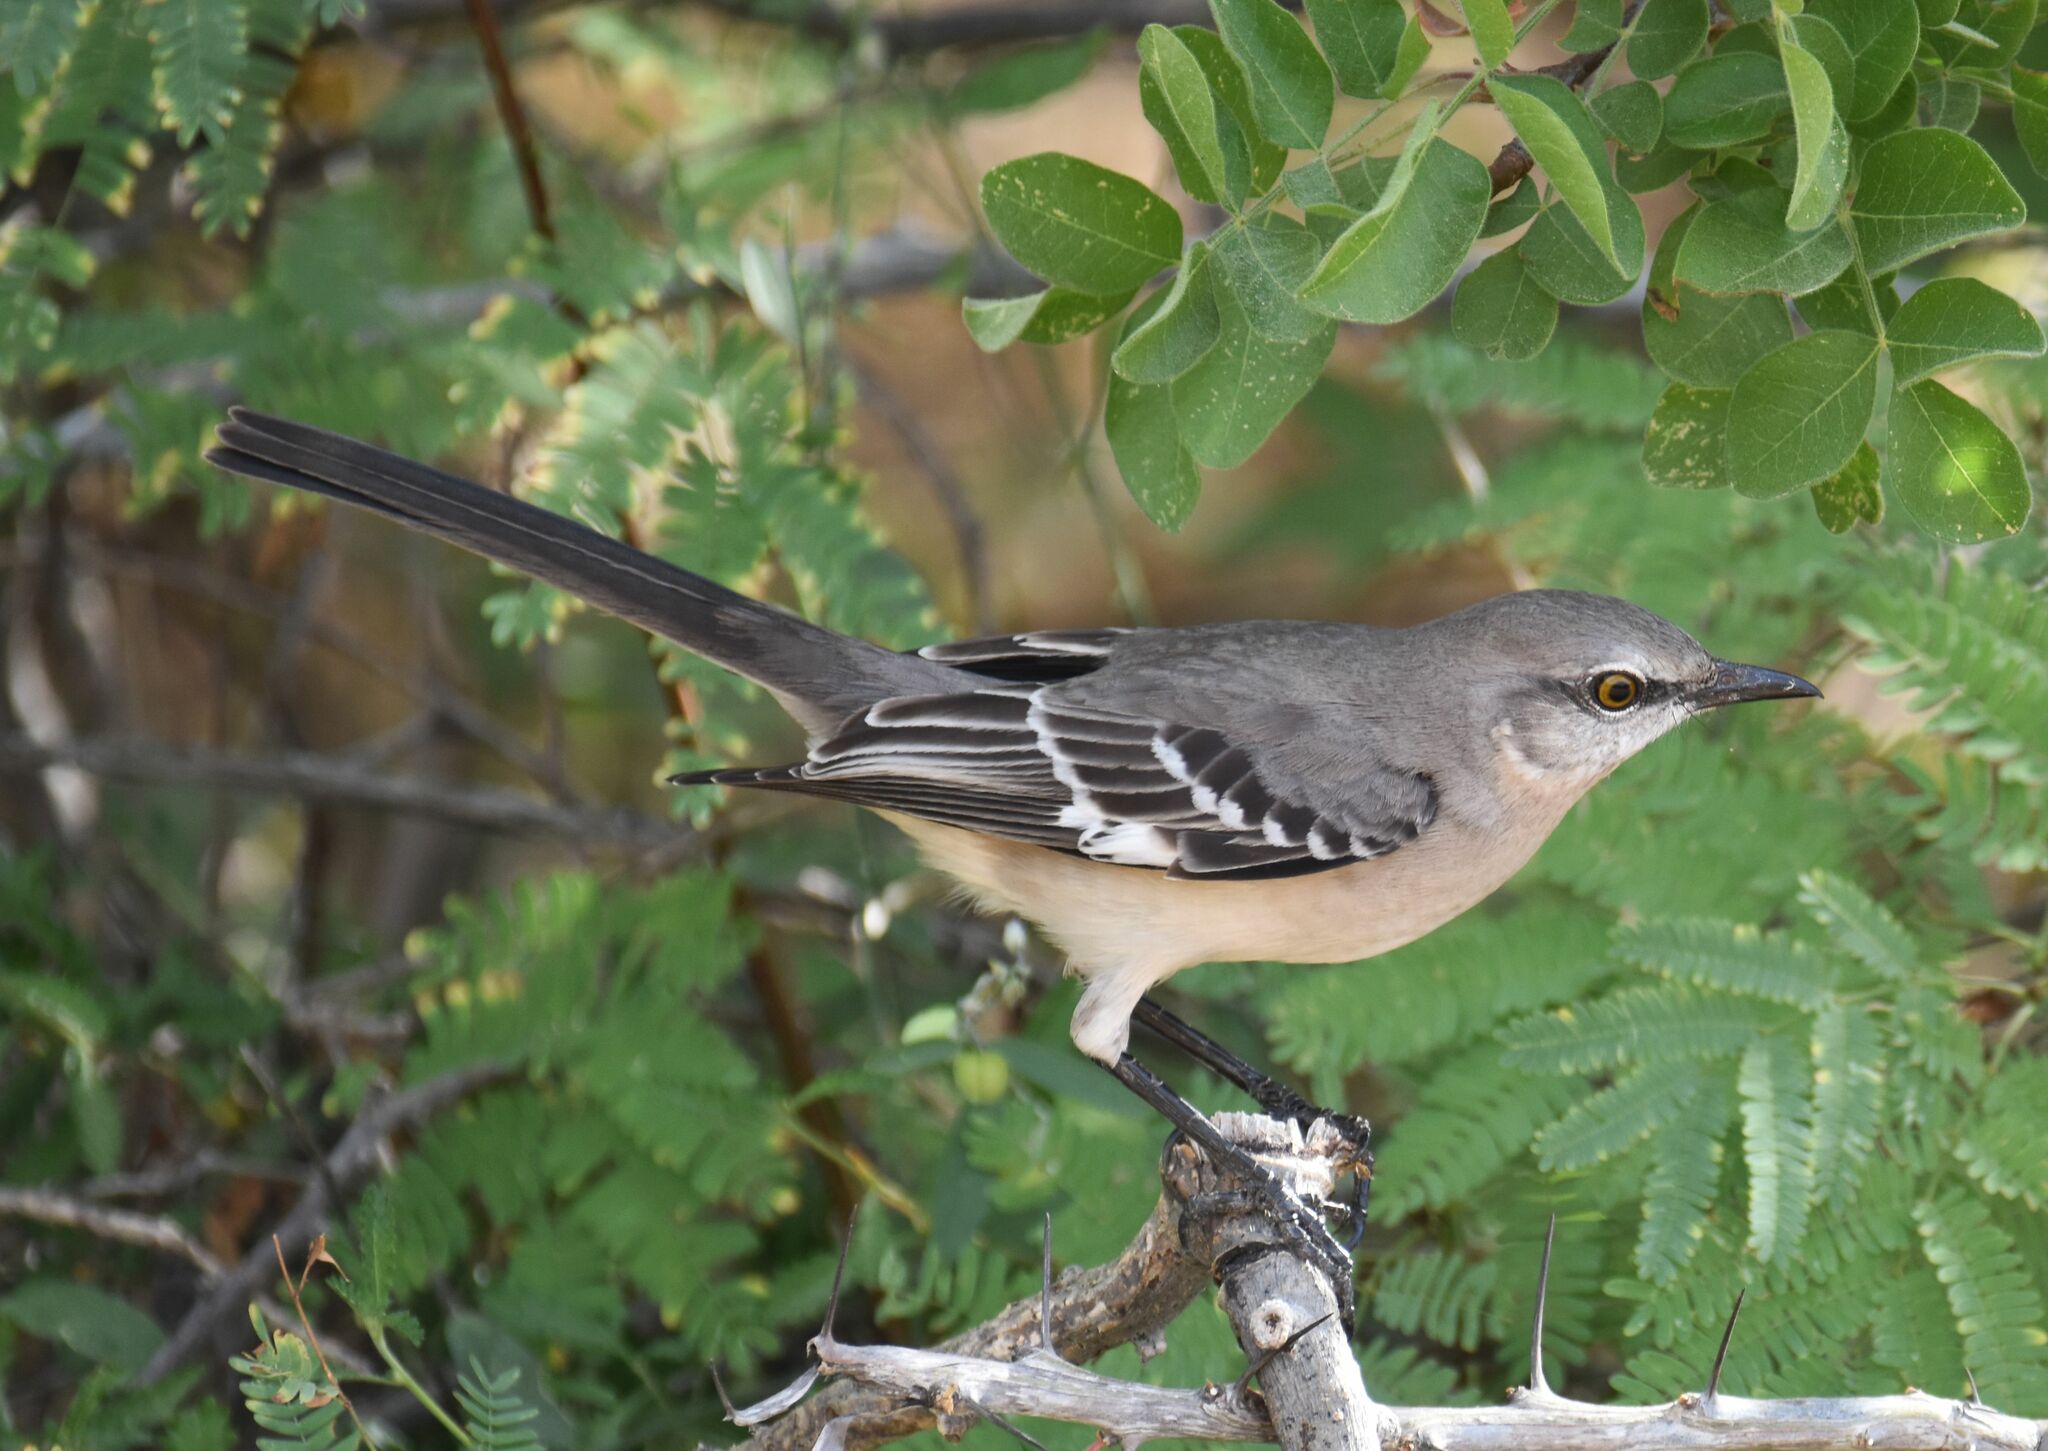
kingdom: Animalia
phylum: Chordata
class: Aves
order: Passeriformes
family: Mimidae
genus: Mimus
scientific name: Mimus polyglottos
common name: Northern mockingbird
